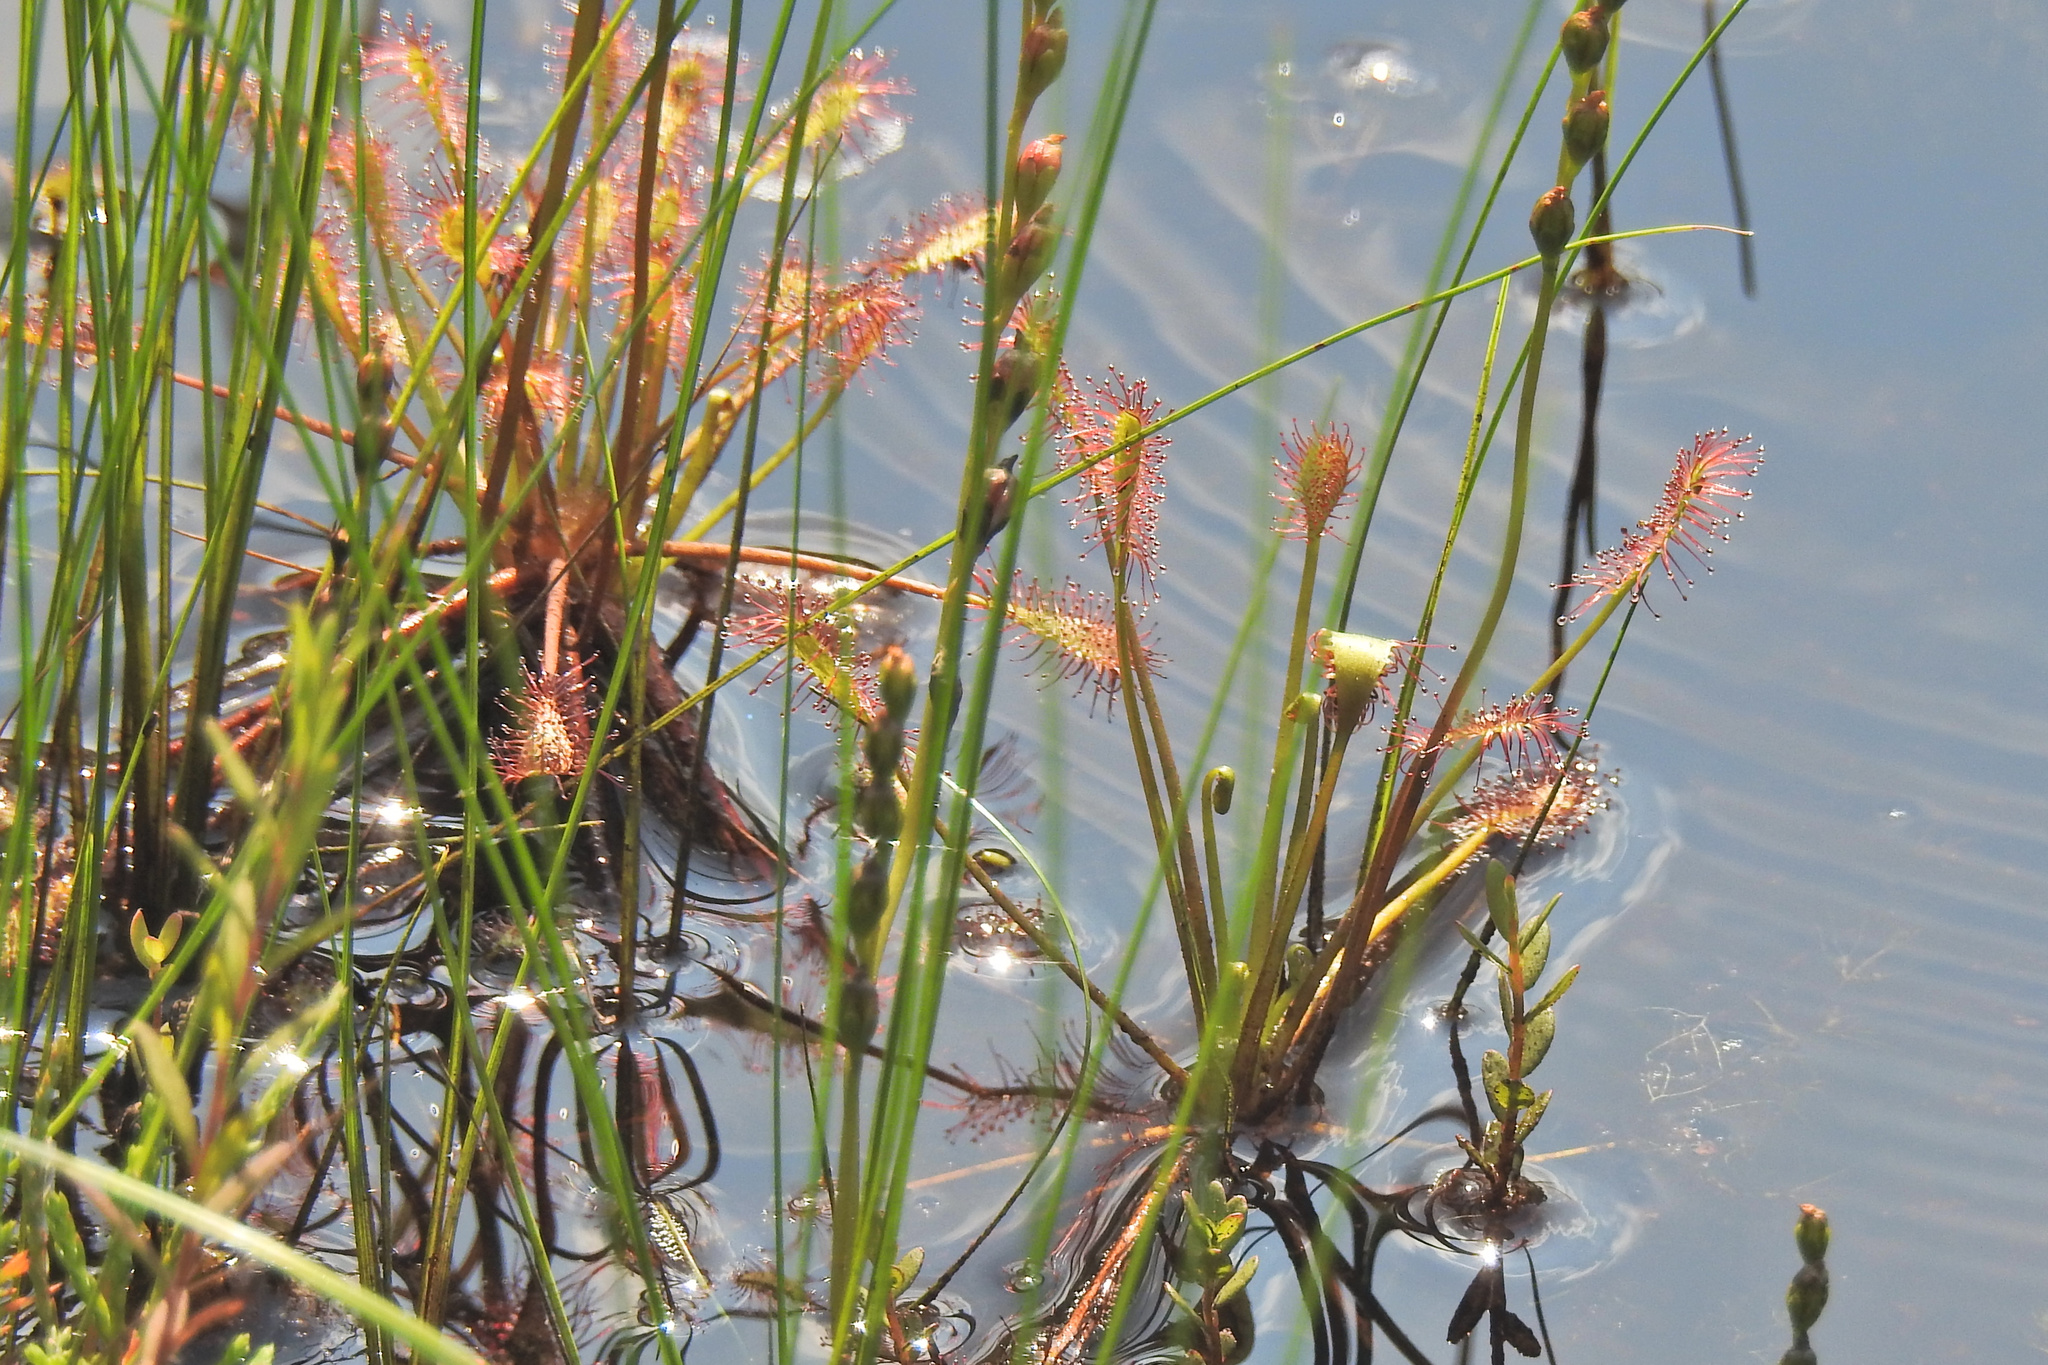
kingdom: Plantae
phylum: Tracheophyta
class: Magnoliopsida
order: Caryophyllales
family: Droseraceae
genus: Drosera
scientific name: Drosera intermedia
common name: Oblong-leaved sundew
